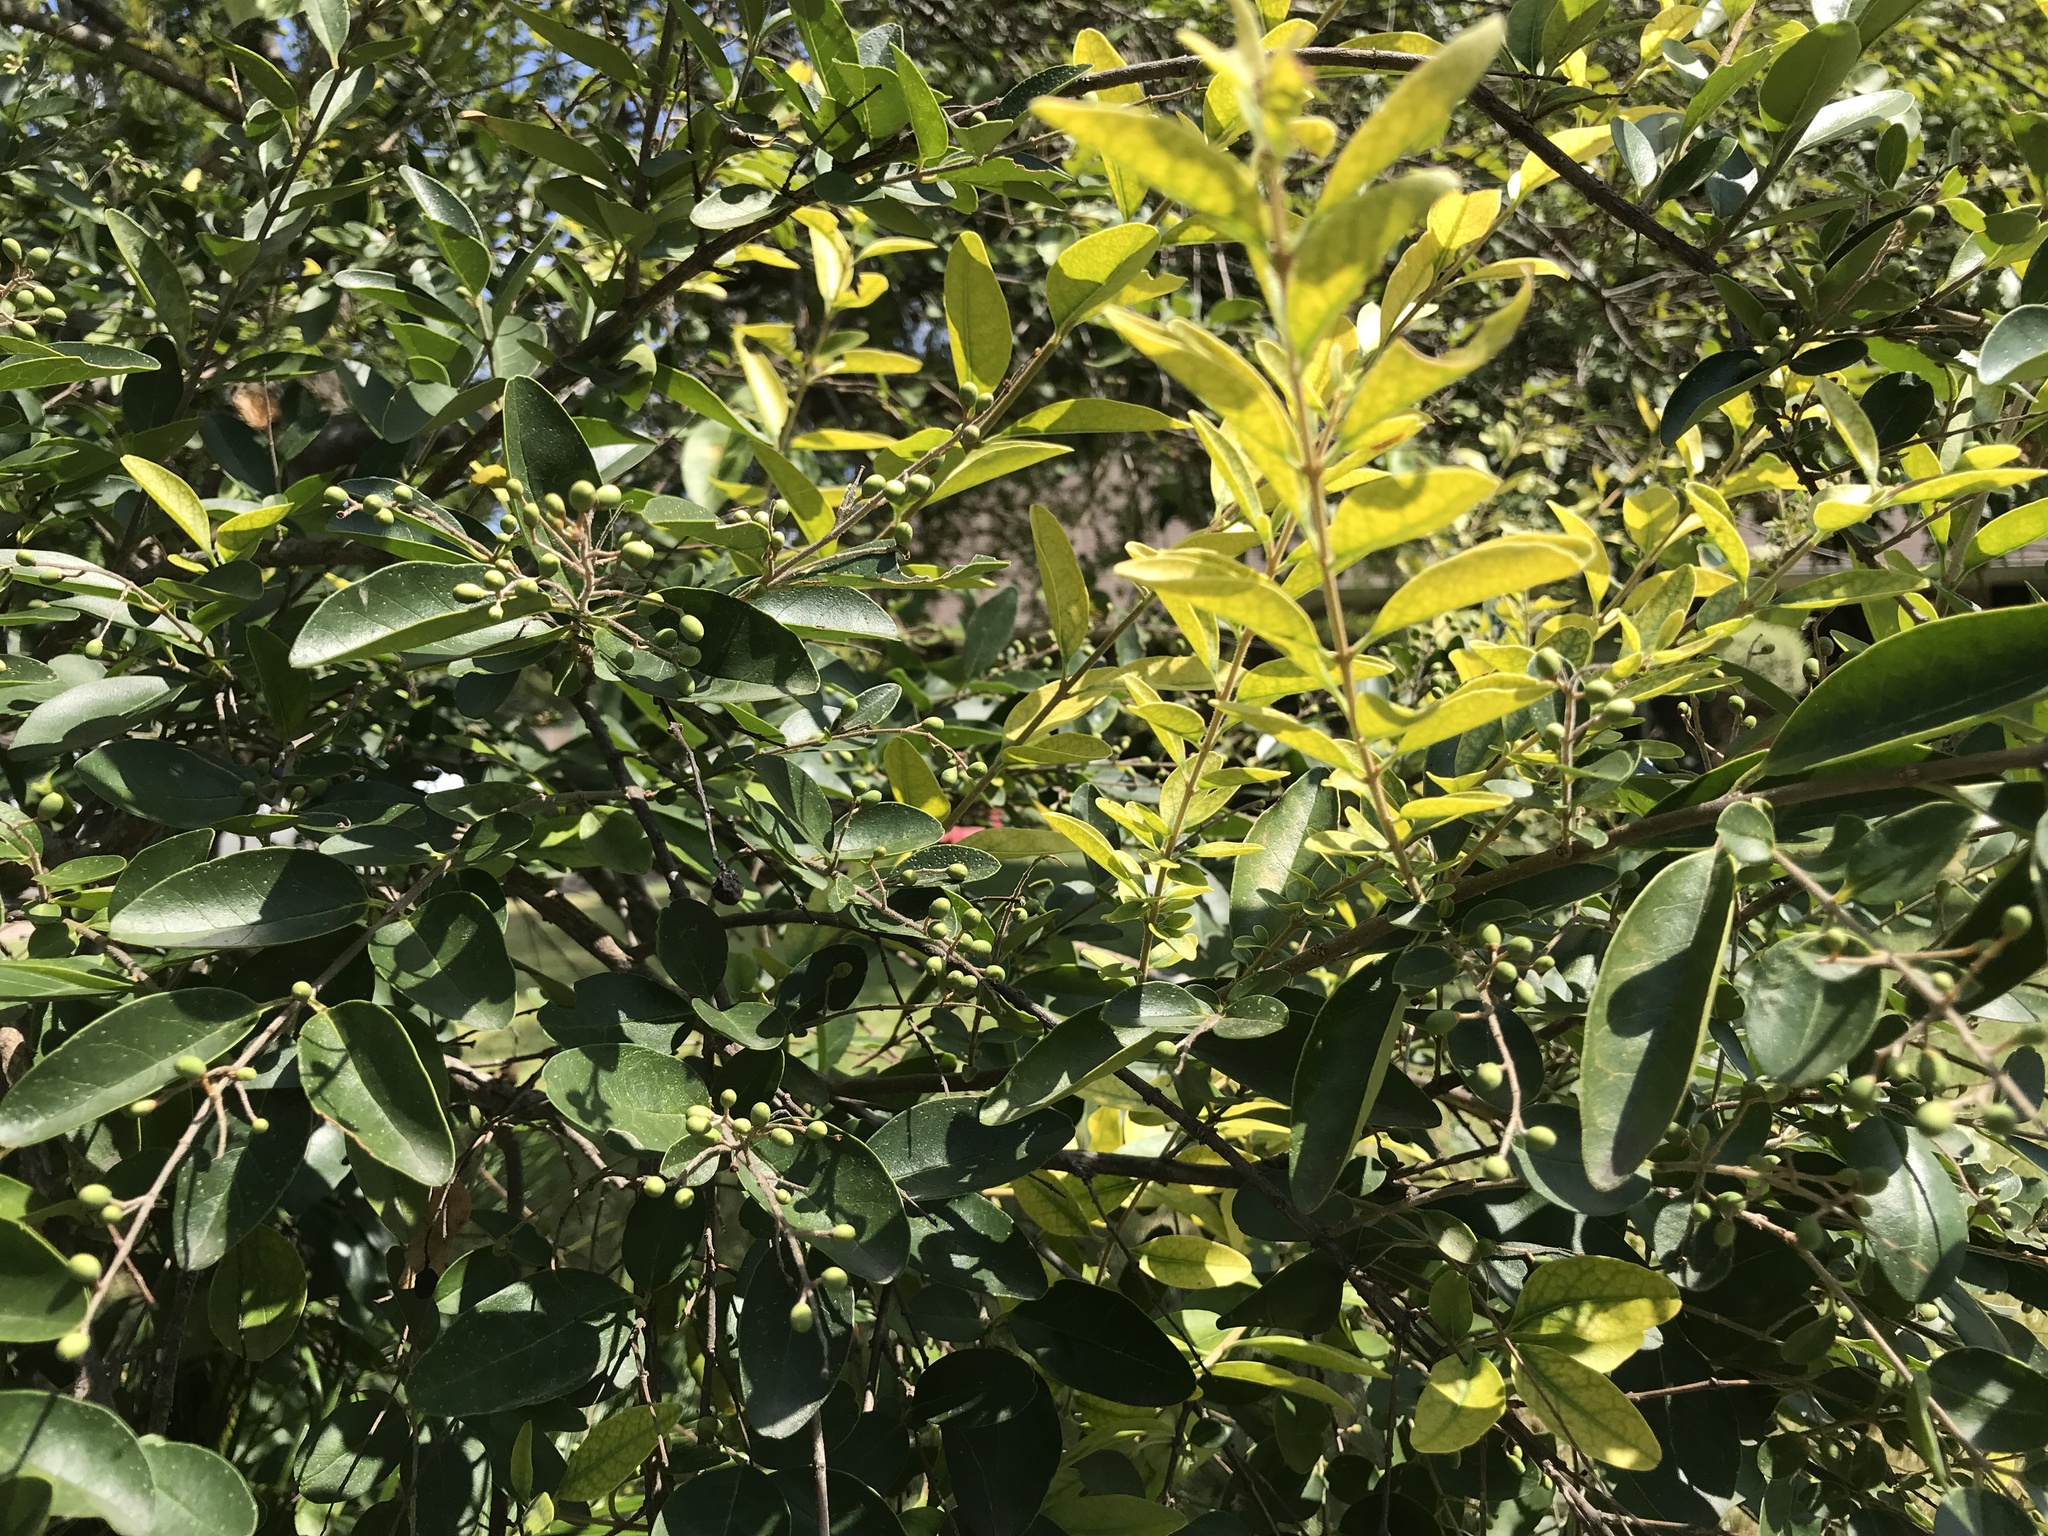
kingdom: Plantae
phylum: Tracheophyta
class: Magnoliopsida
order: Lamiales
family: Oleaceae
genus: Ligustrum
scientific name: Ligustrum sinense
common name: Chinese privet
